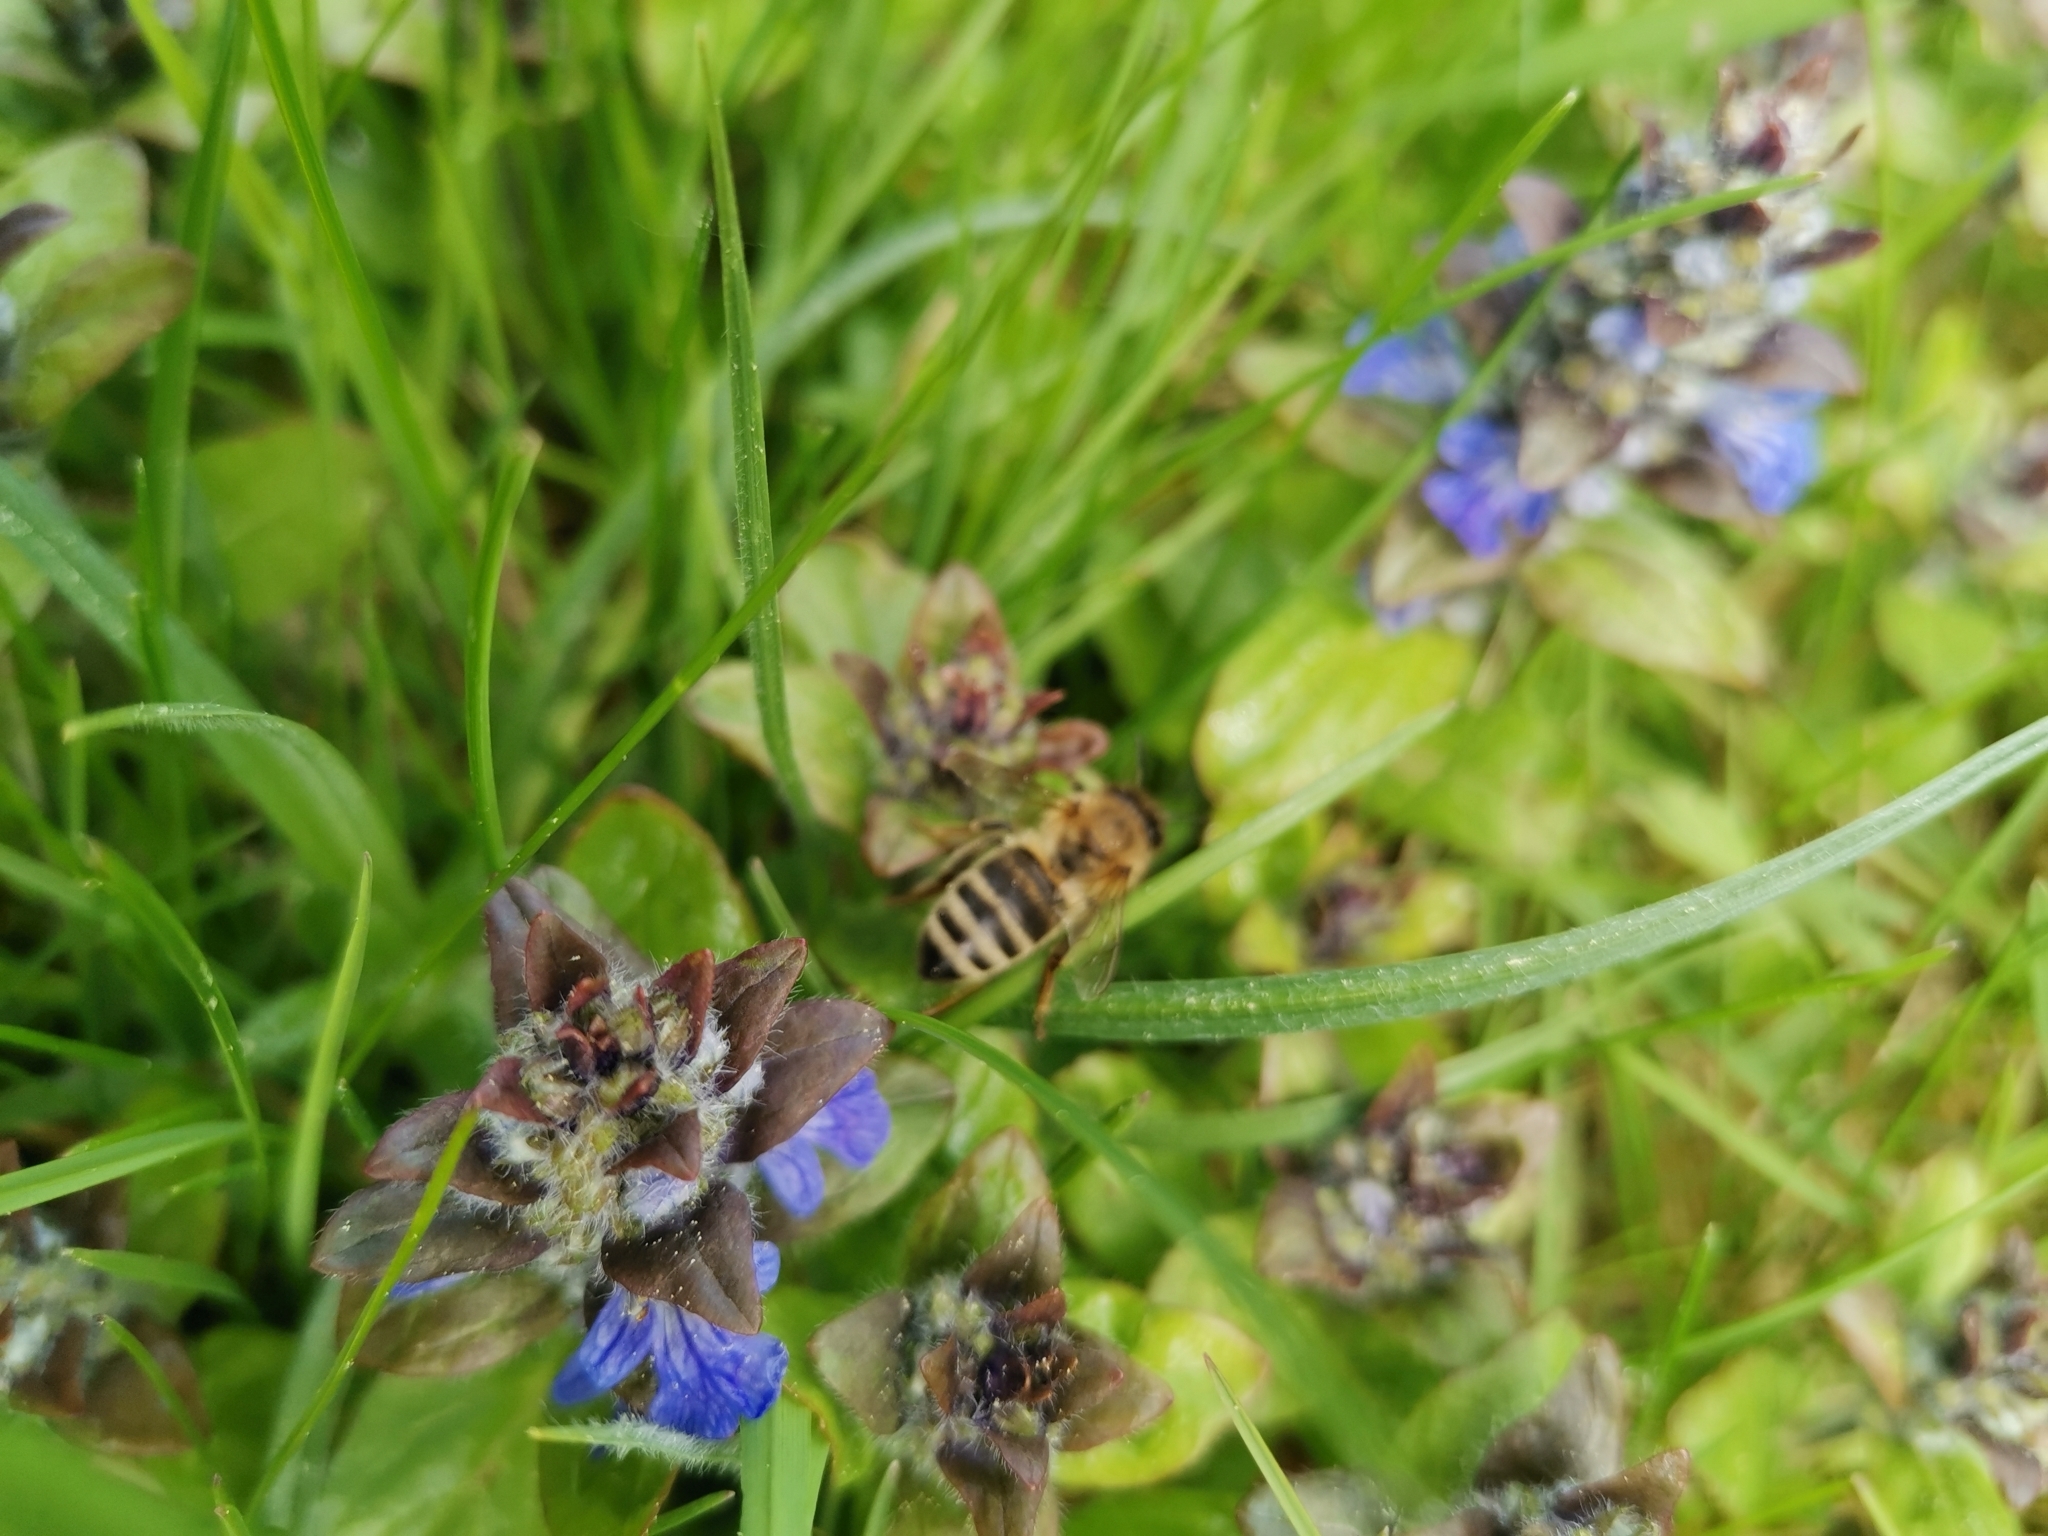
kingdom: Animalia
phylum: Arthropoda
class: Insecta
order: Hymenoptera
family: Apidae
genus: Apis
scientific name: Apis mellifera
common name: Honey bee
